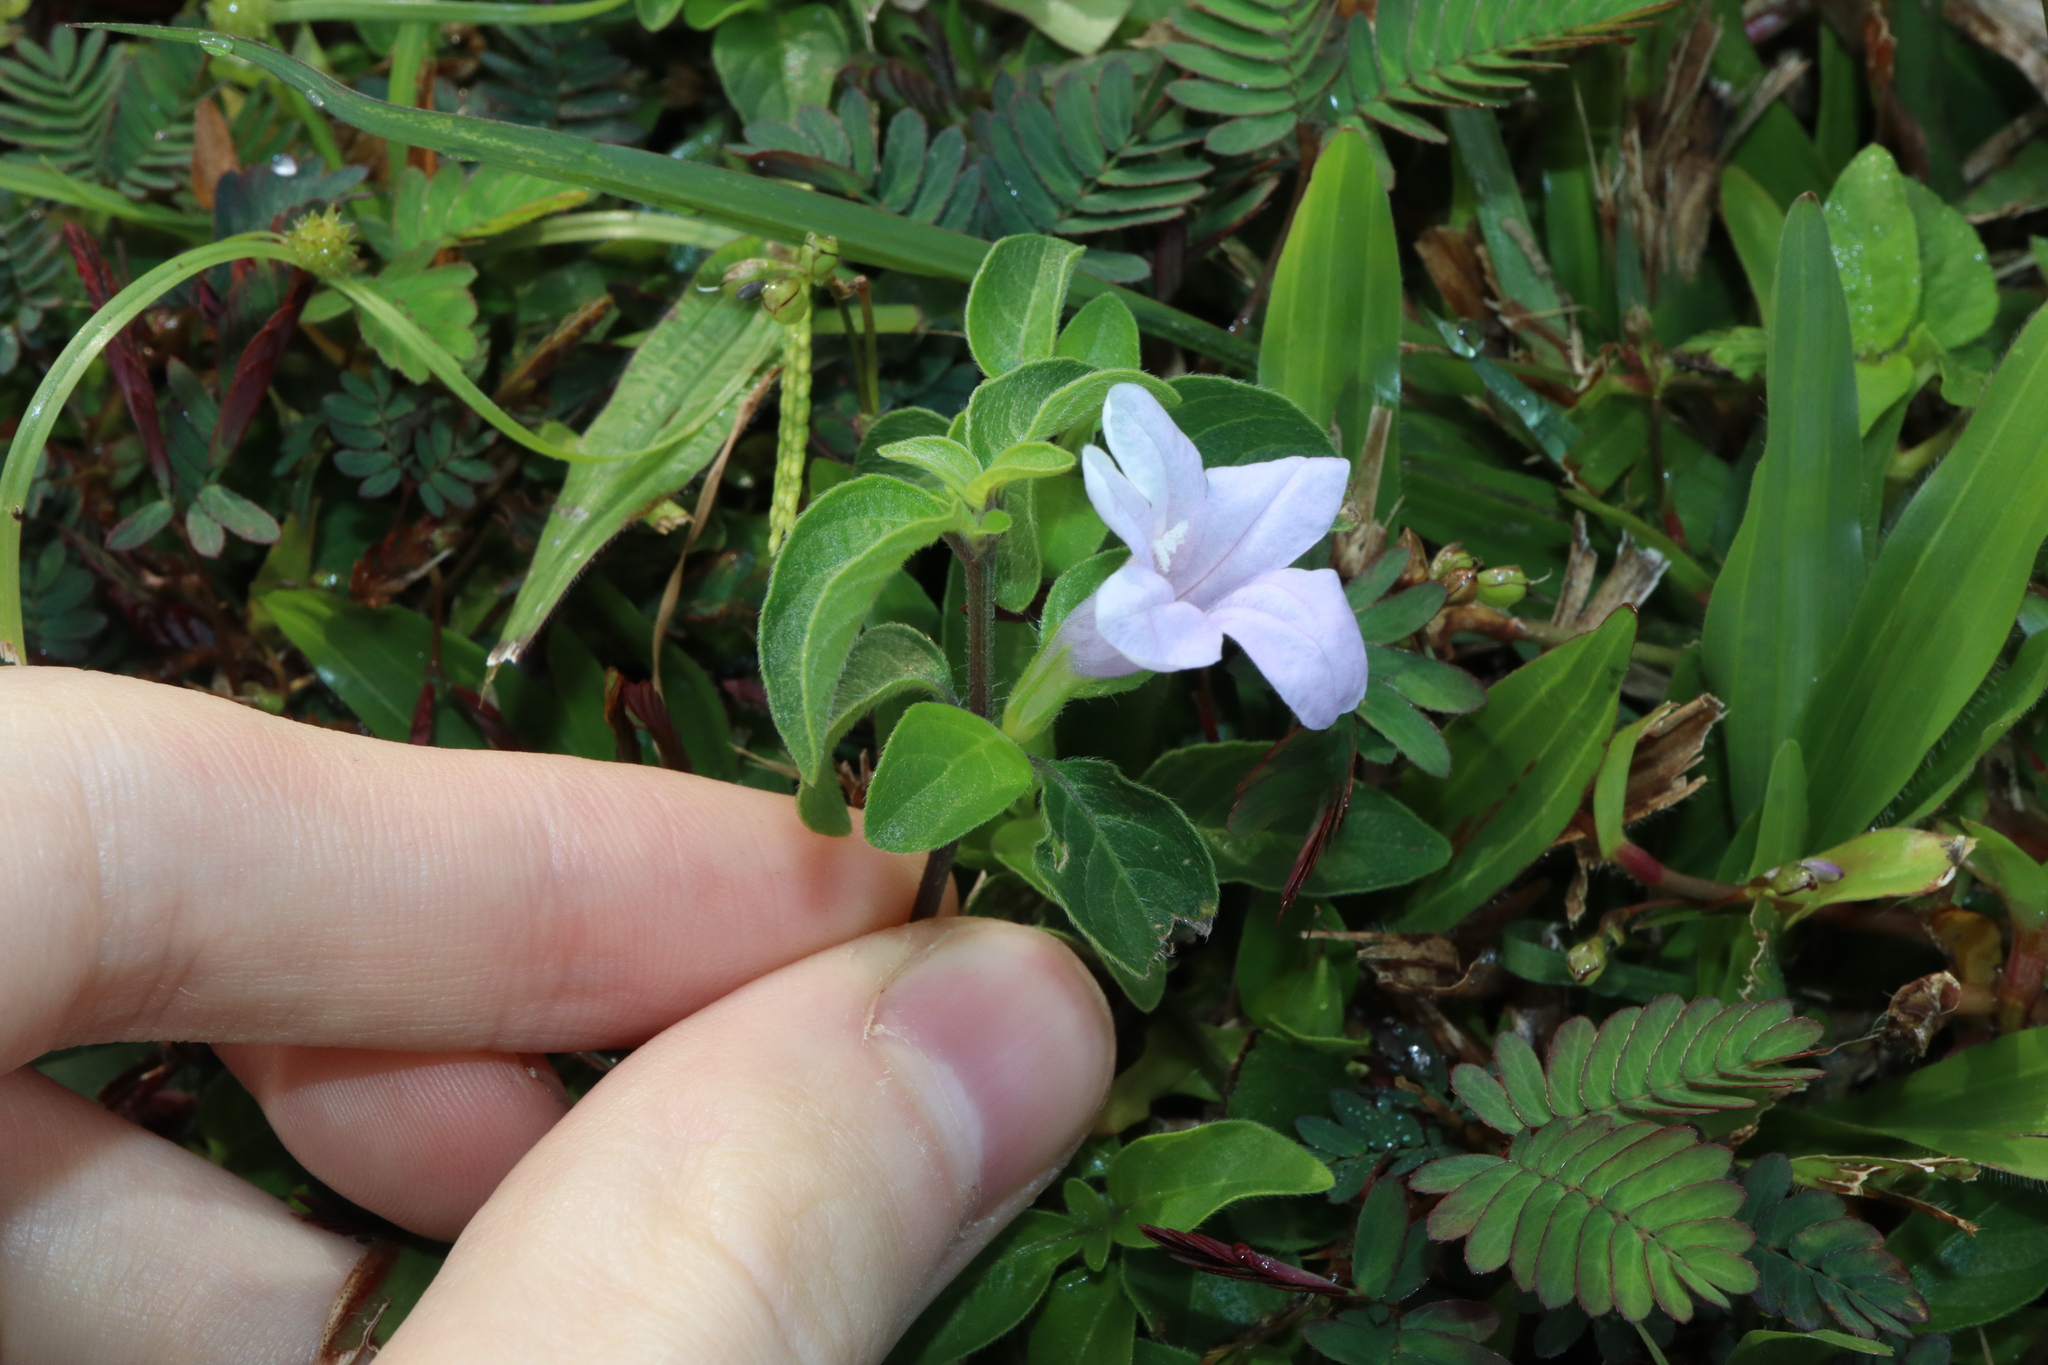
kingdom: Plantae
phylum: Tracheophyta
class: Magnoliopsida
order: Lamiales
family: Acanthaceae
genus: Ruellia
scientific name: Ruellia prostrata
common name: Prostrate wild petunia
